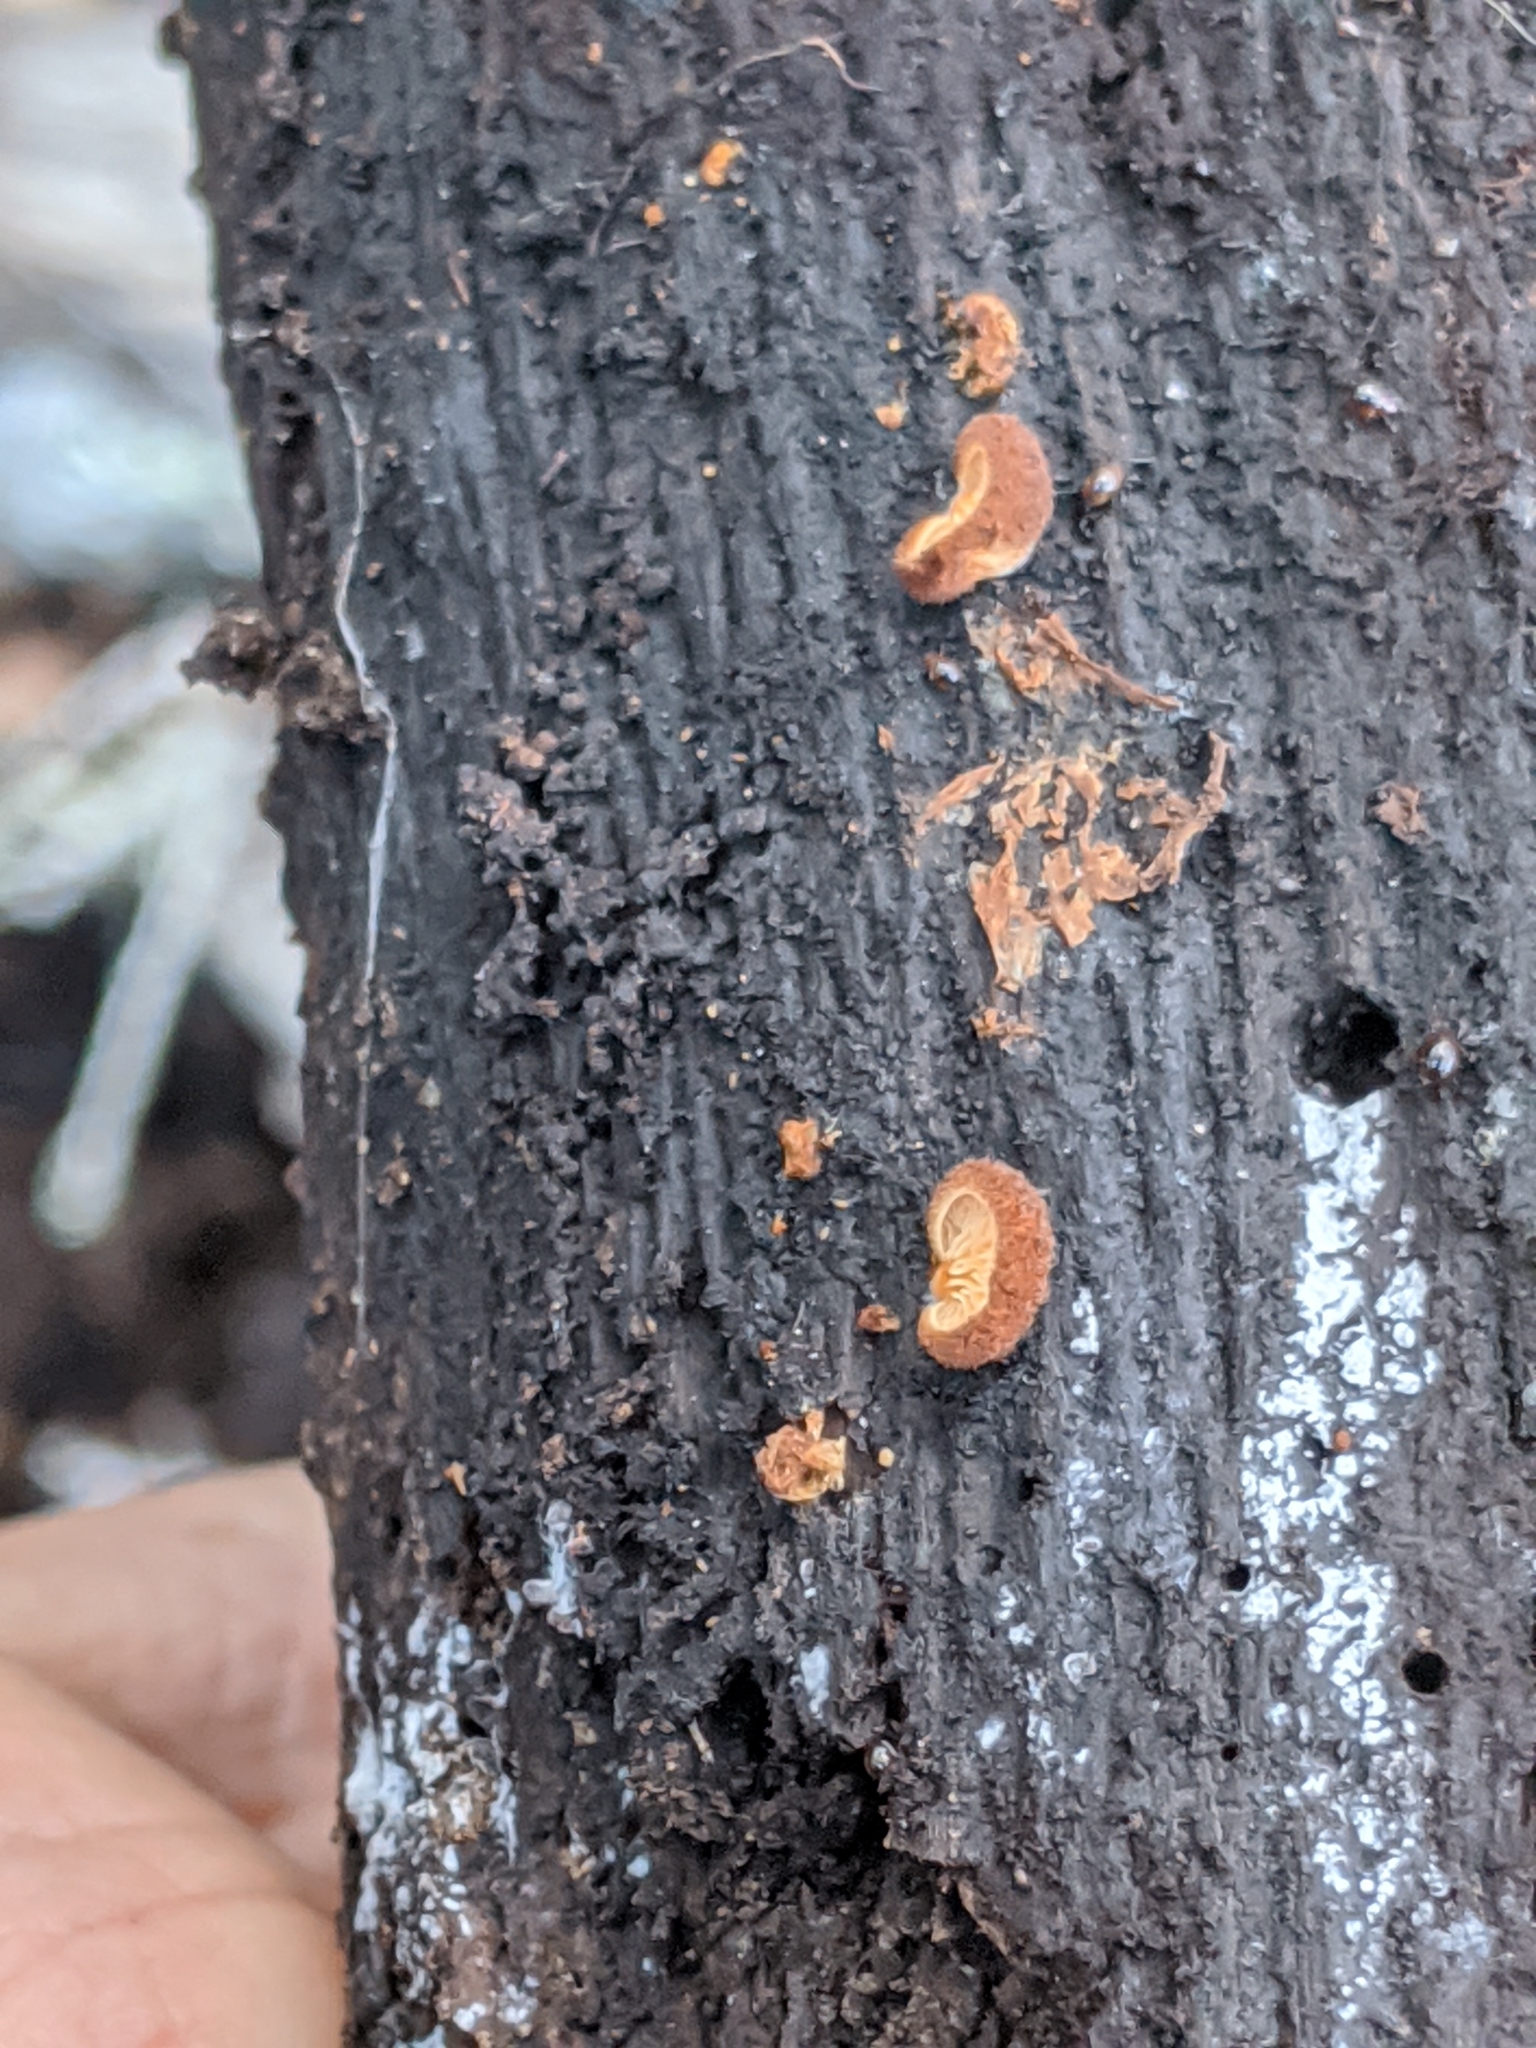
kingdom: Fungi
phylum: Basidiomycota
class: Agaricomycetes
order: Agaricales
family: Crepidotaceae
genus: Crepidotus
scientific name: Crepidotus crocophyllus
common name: Saffron oysterling
